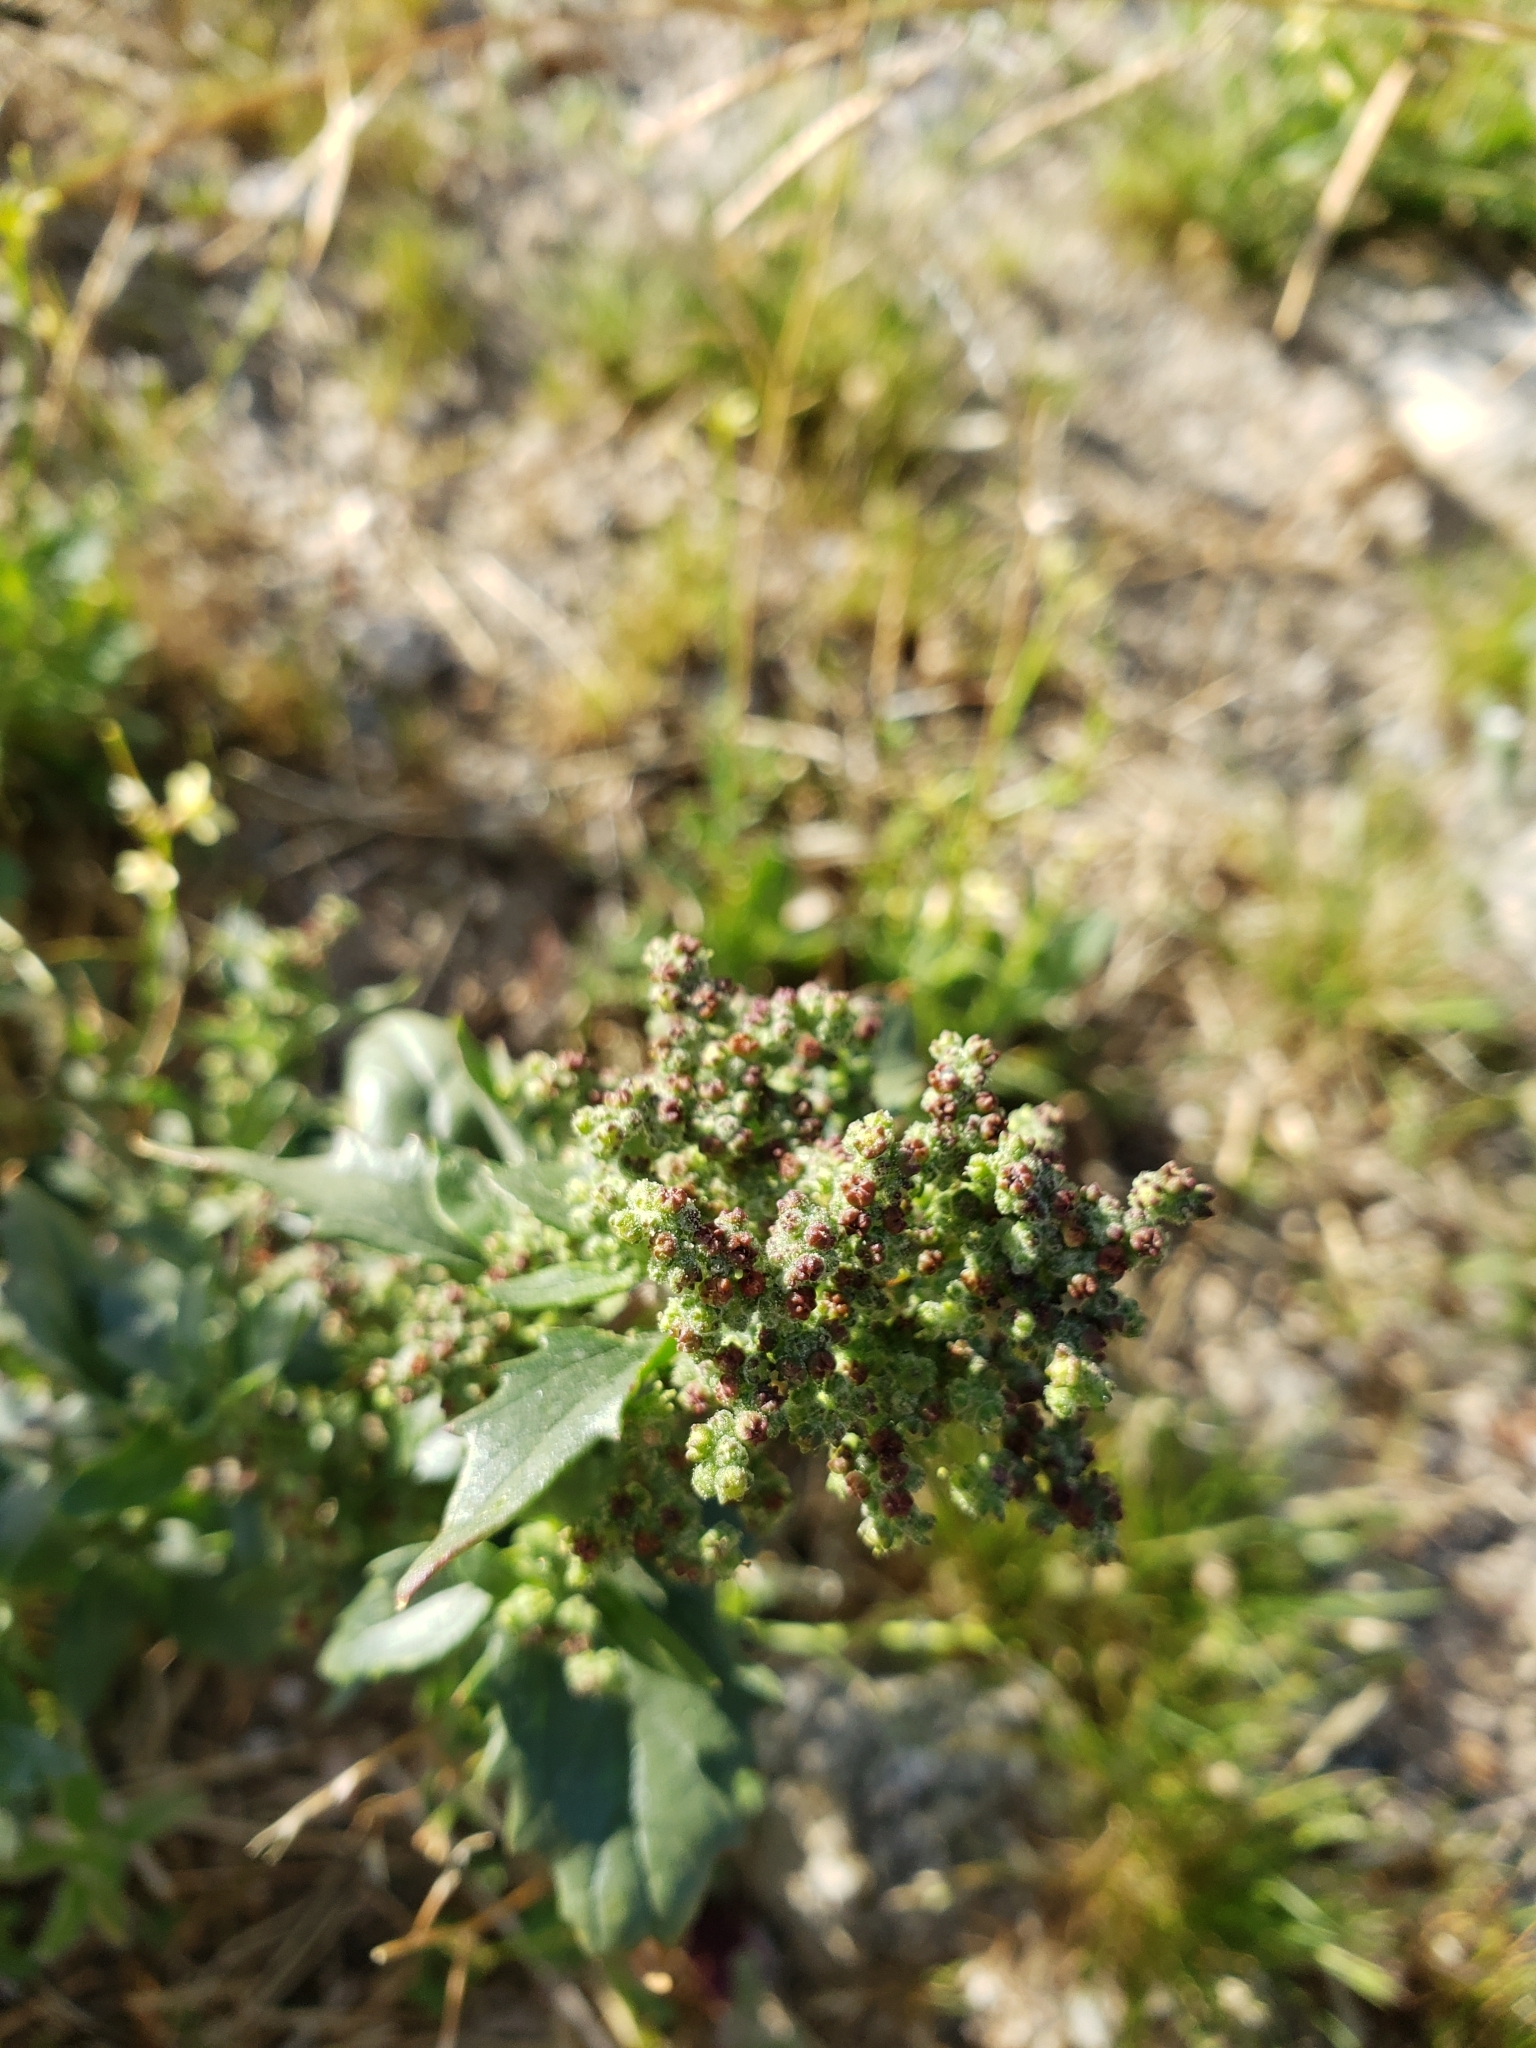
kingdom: Plantae
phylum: Tracheophyta
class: Magnoliopsida
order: Caryophyllales
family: Amaranthaceae
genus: Chenopodiastrum
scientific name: Chenopodiastrum murale
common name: Sowbane
